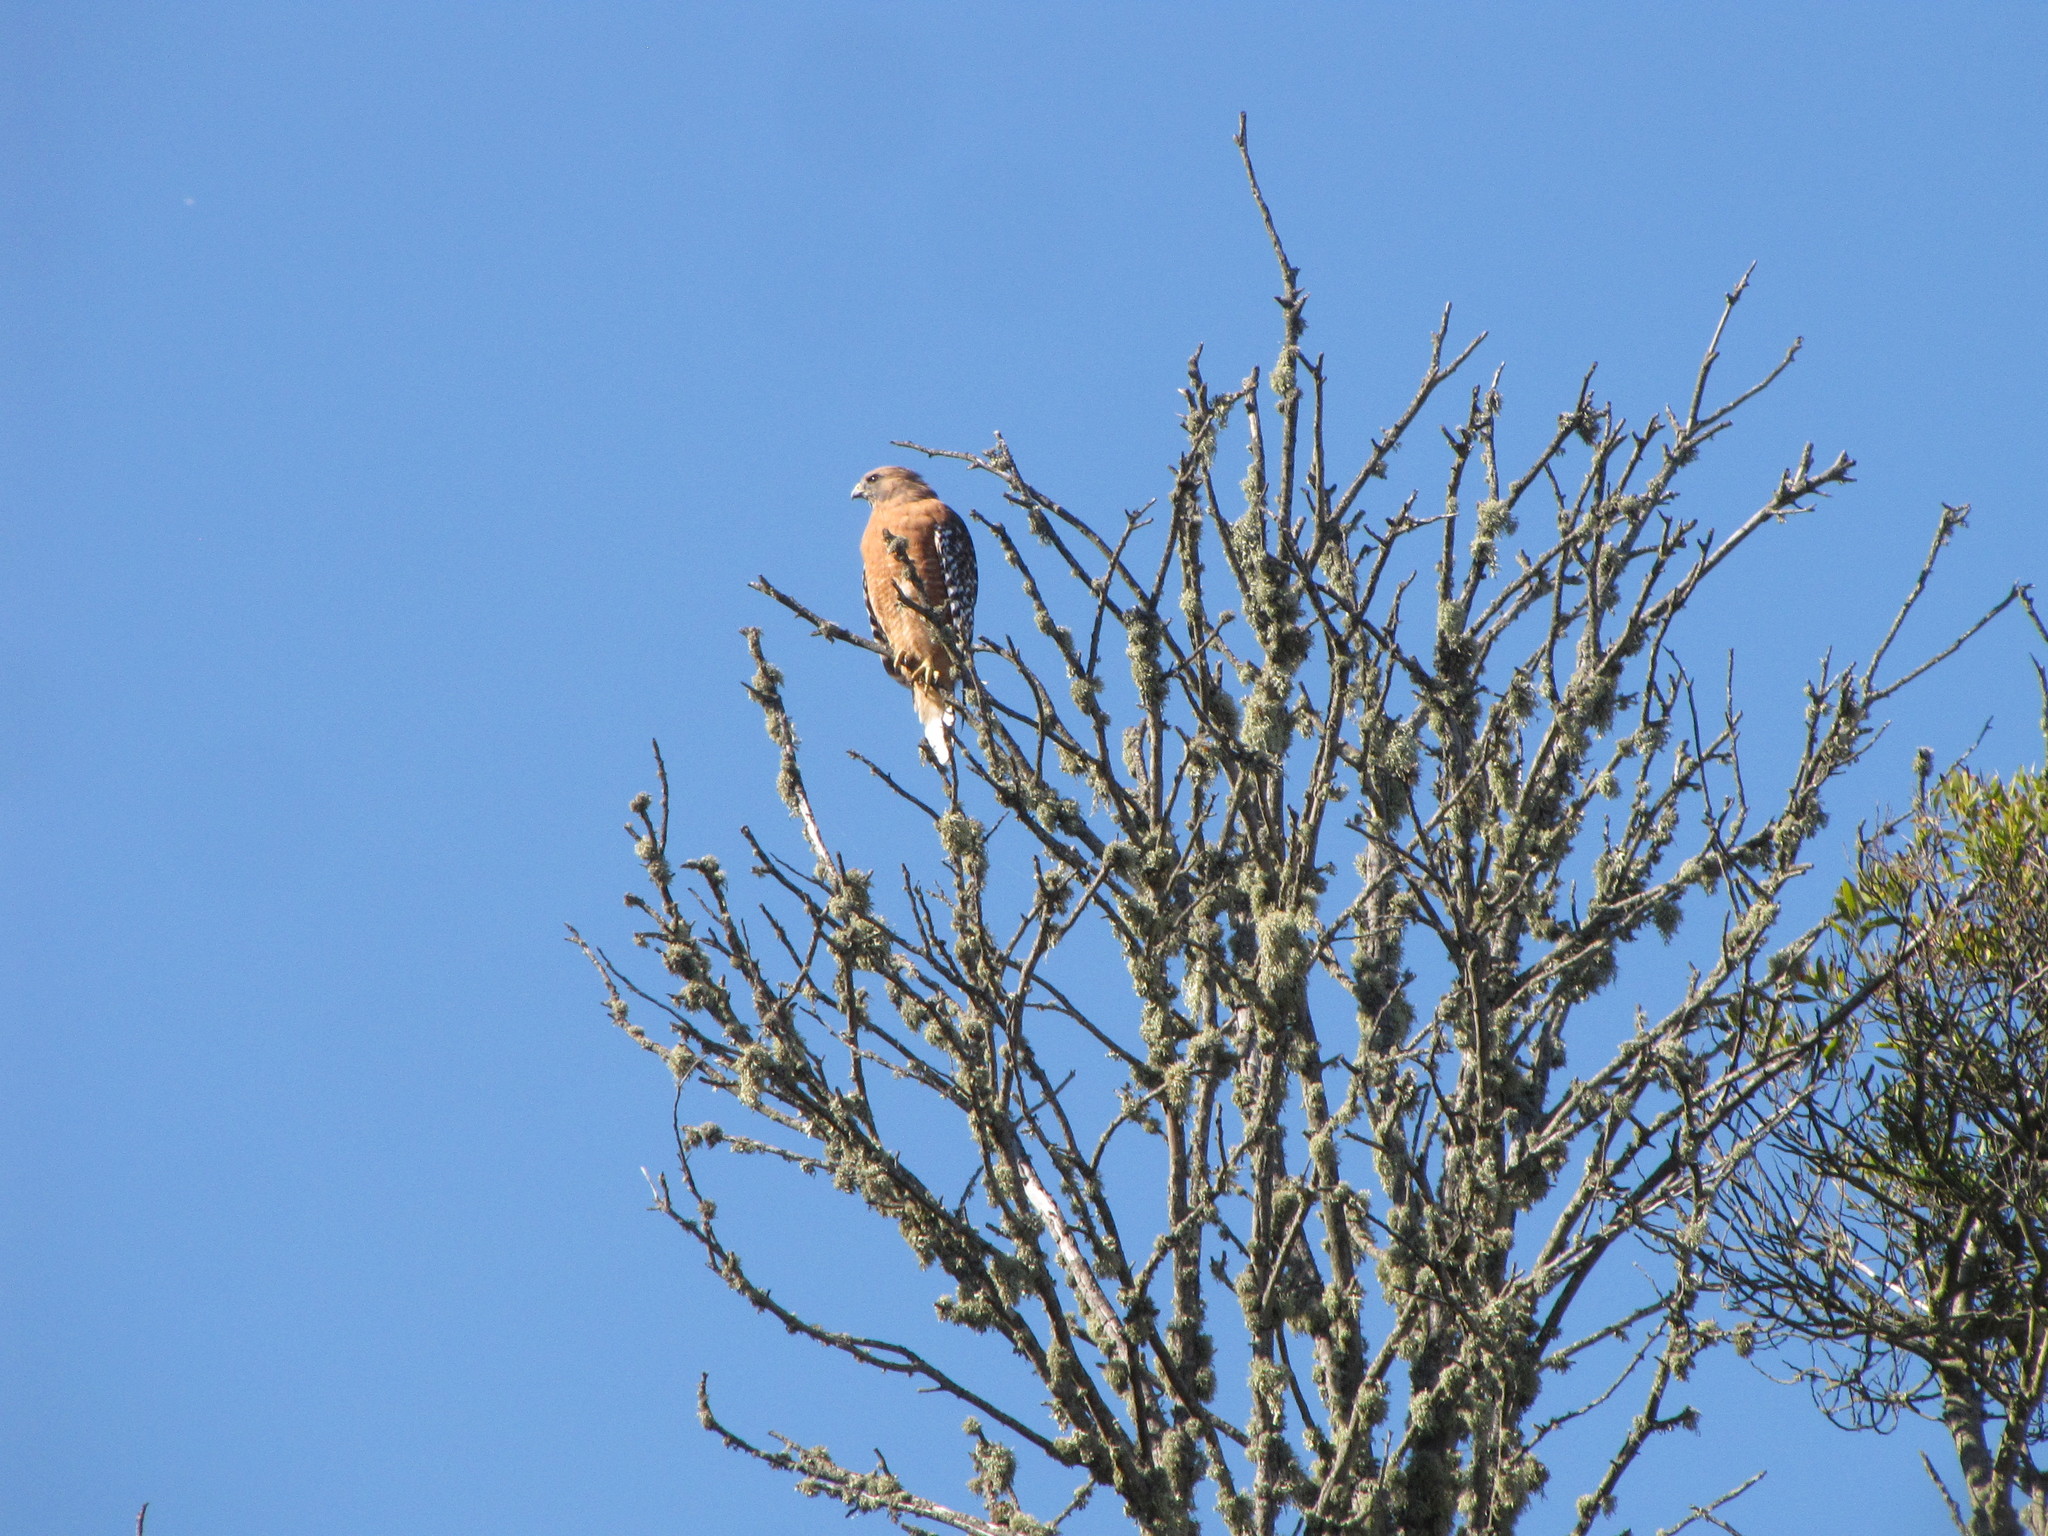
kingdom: Animalia
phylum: Chordata
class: Aves
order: Accipitriformes
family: Accipitridae
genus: Buteo
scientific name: Buteo lineatus
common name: Red-shouldered hawk
